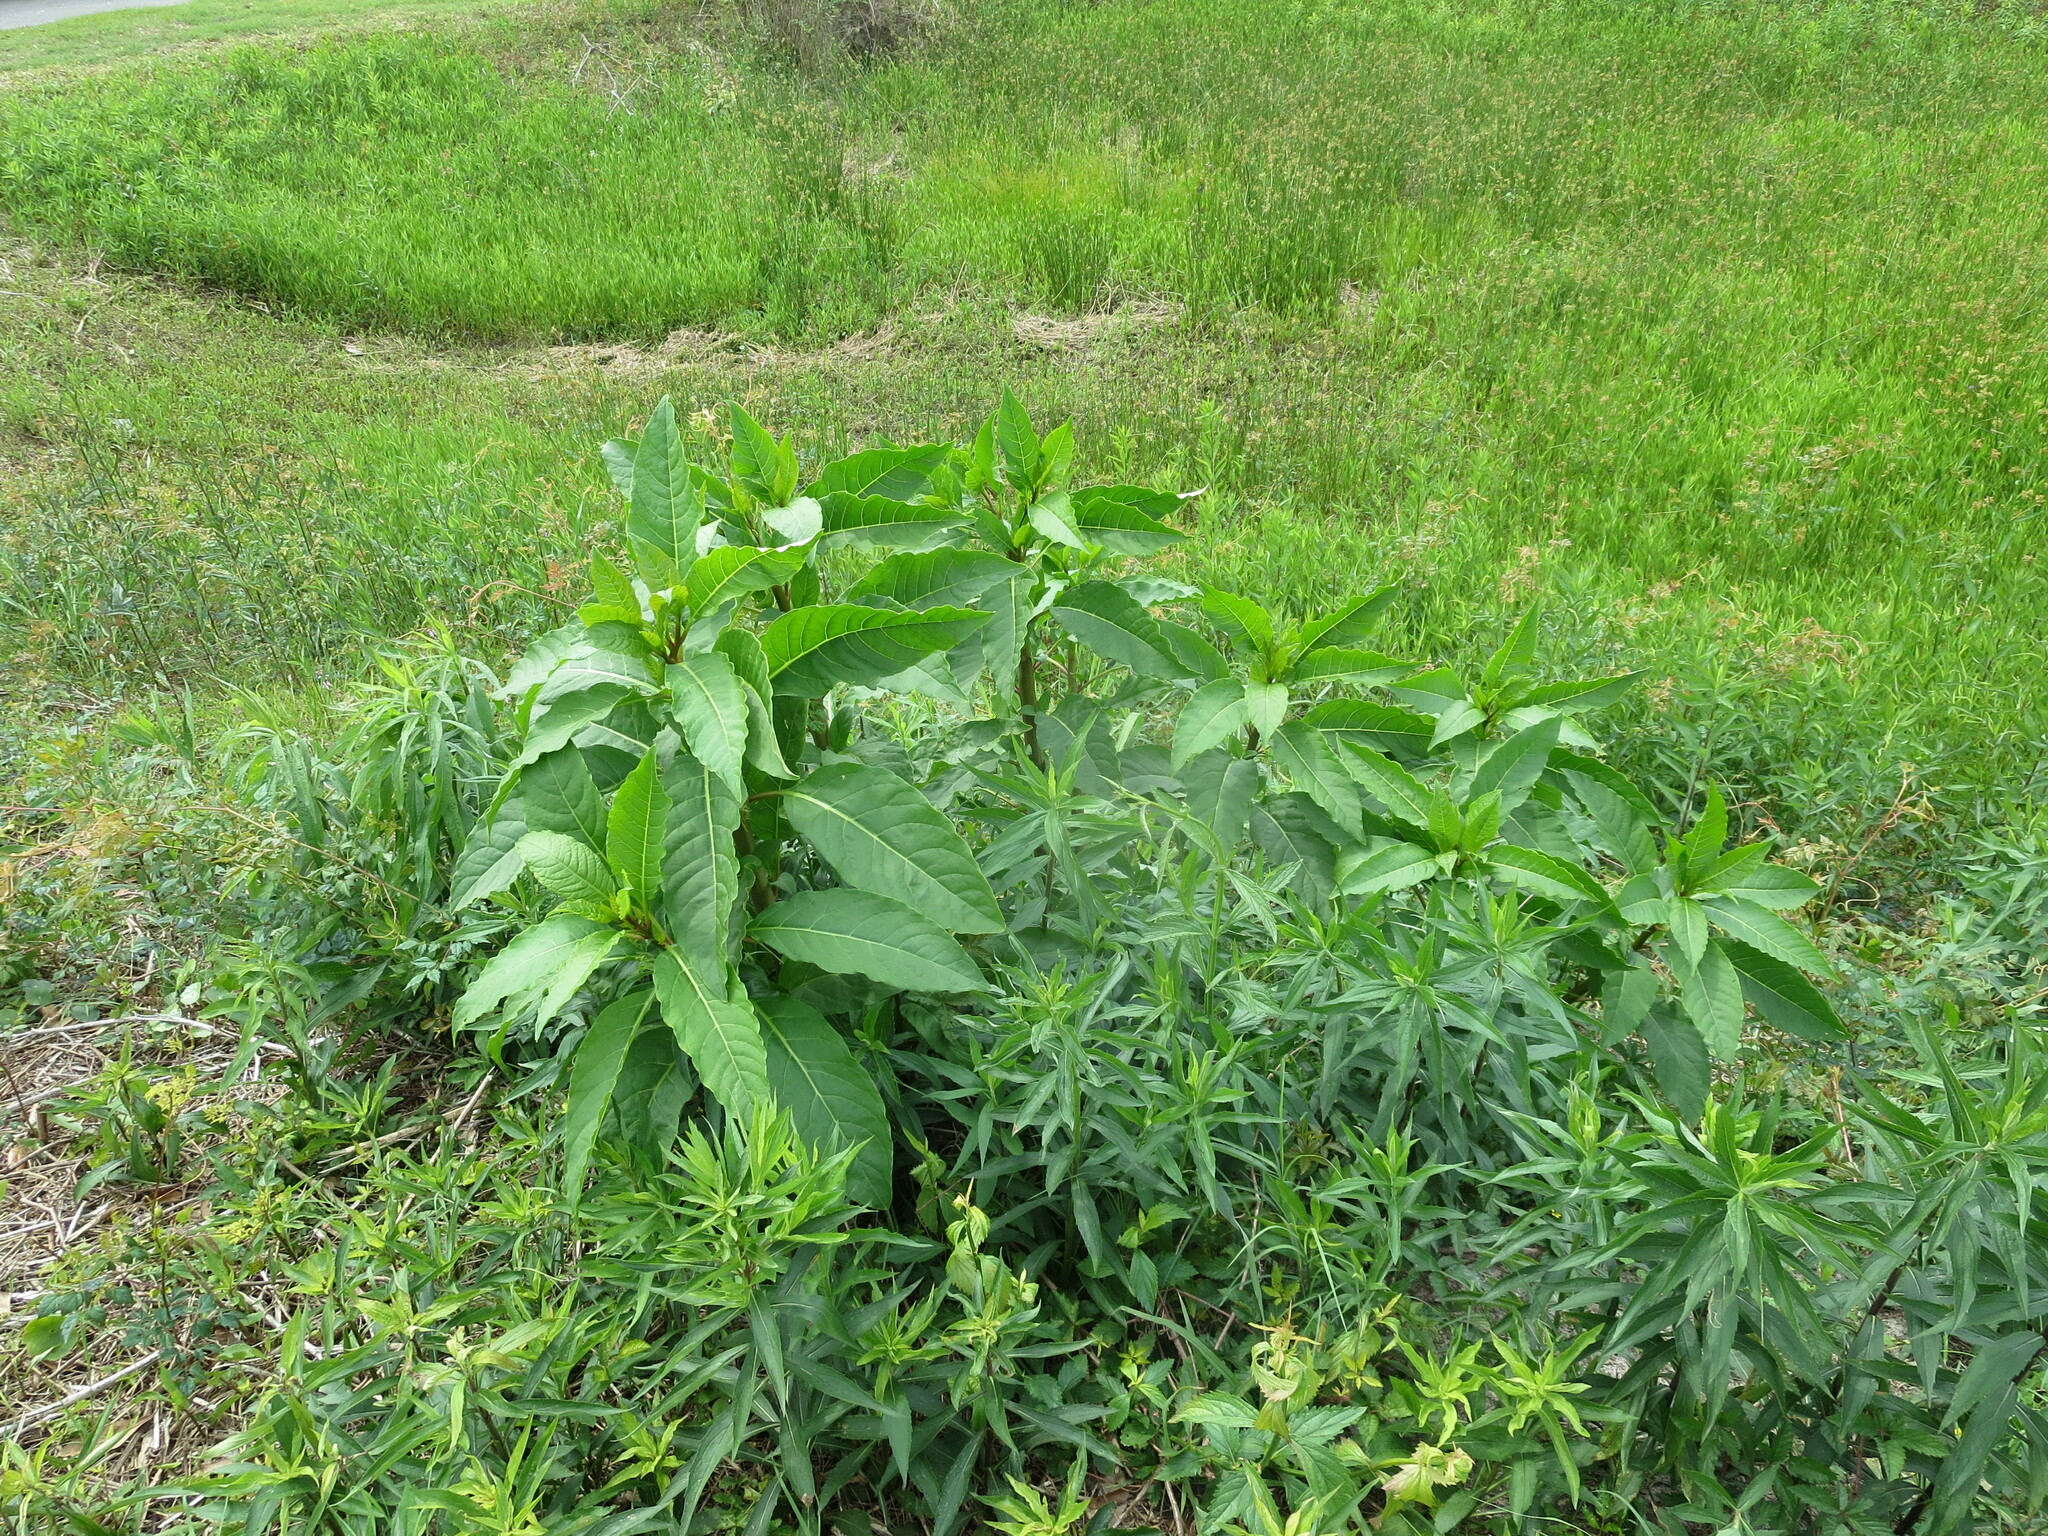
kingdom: Plantae
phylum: Tracheophyta
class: Magnoliopsida
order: Caryophyllales
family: Phytolaccaceae
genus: Phytolacca
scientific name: Phytolacca americana
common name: American pokeweed
